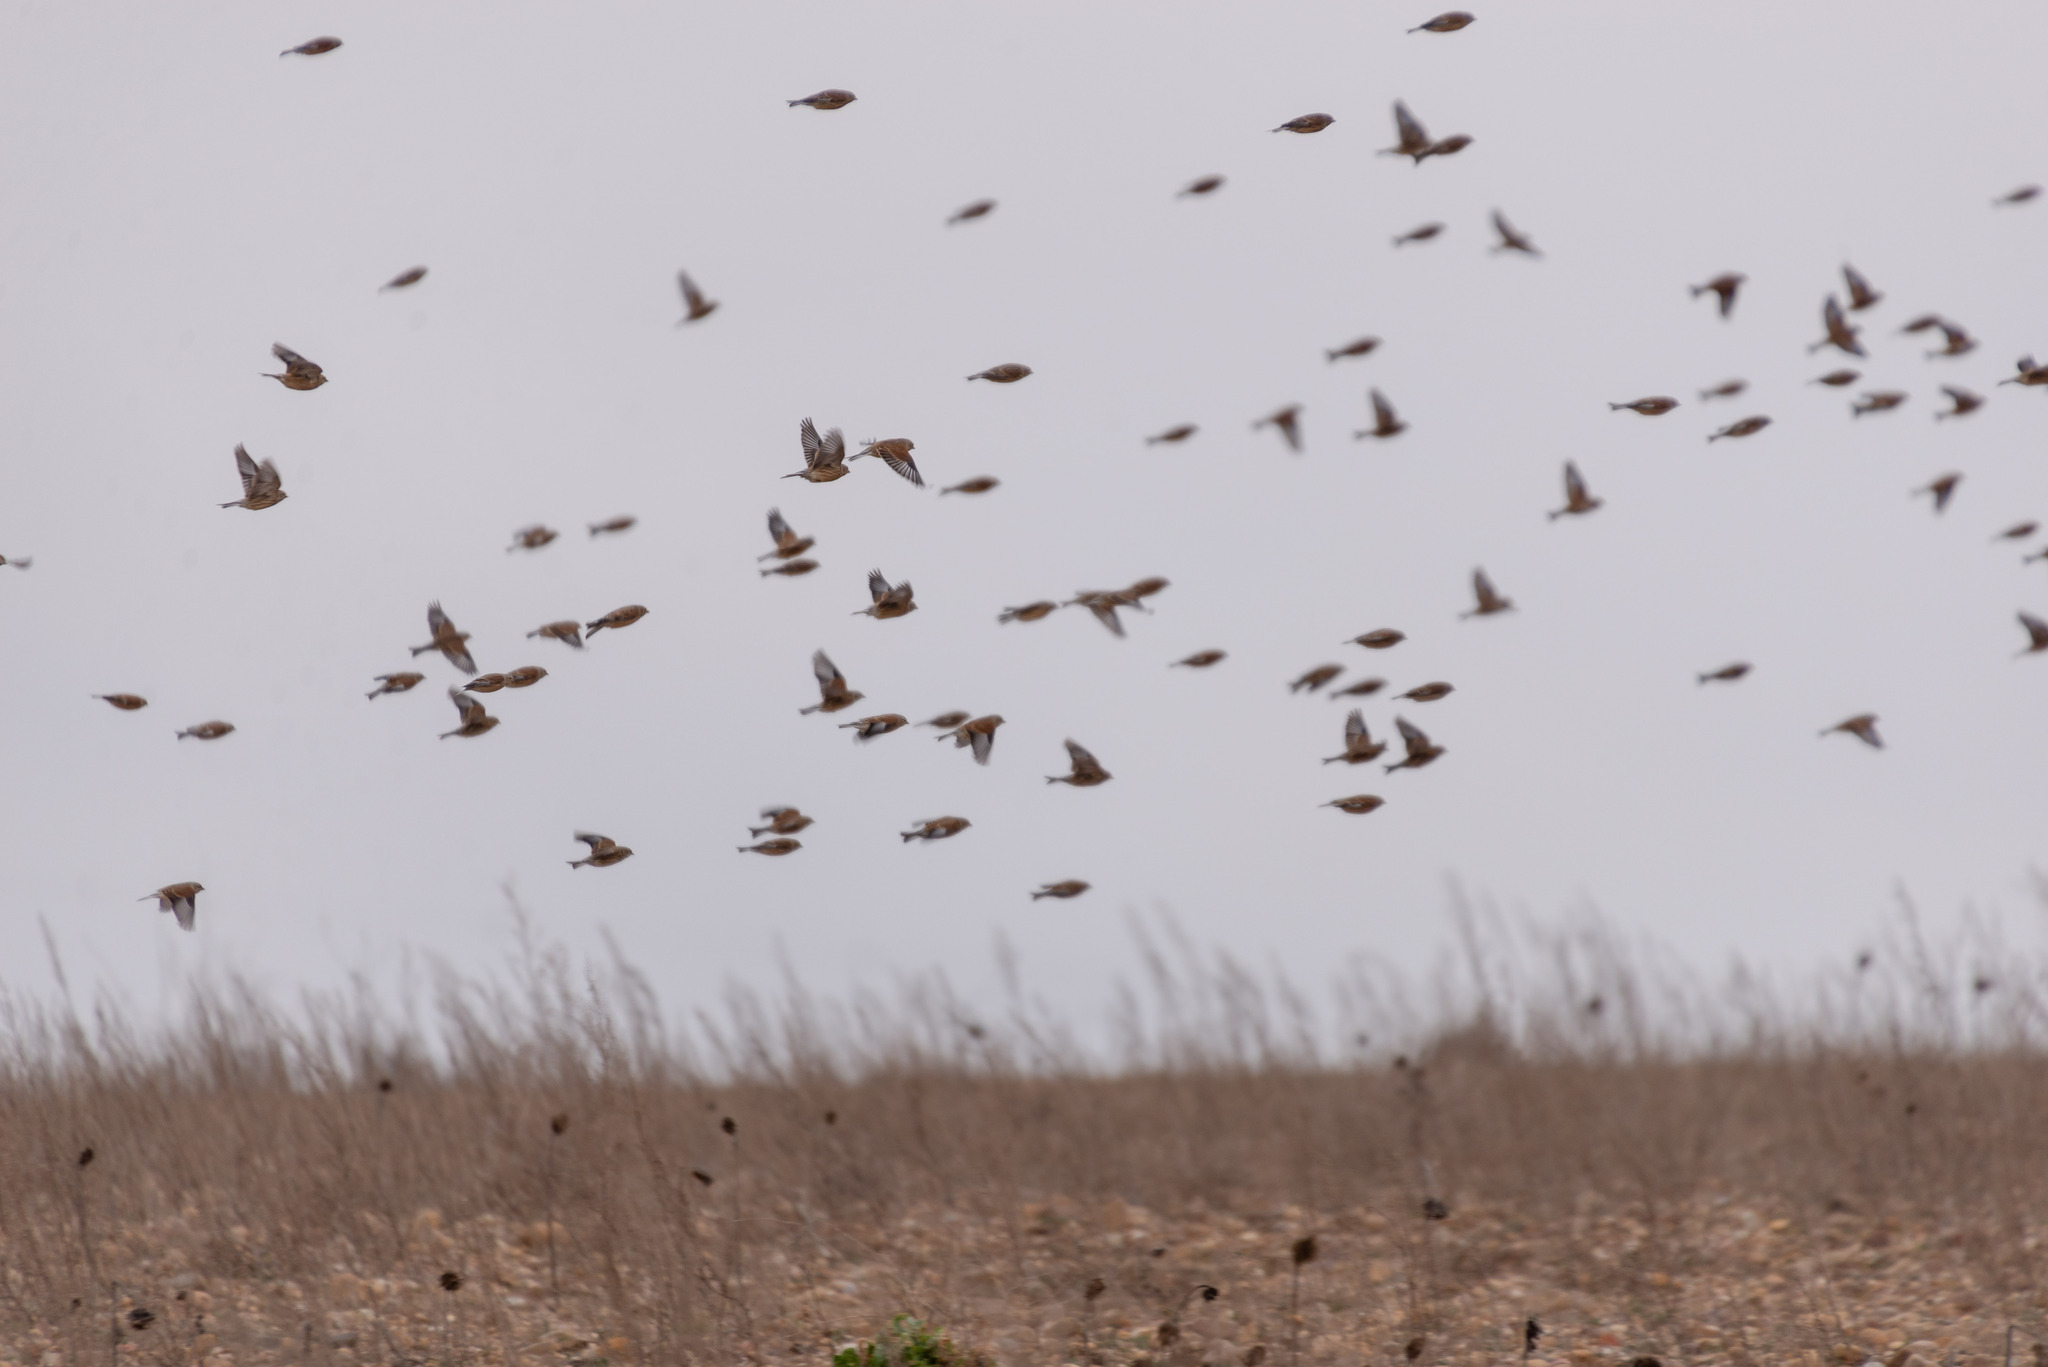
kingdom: Animalia
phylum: Chordata
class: Aves
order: Passeriformes
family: Fringillidae
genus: Linaria
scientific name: Linaria cannabina
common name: Common linnet
